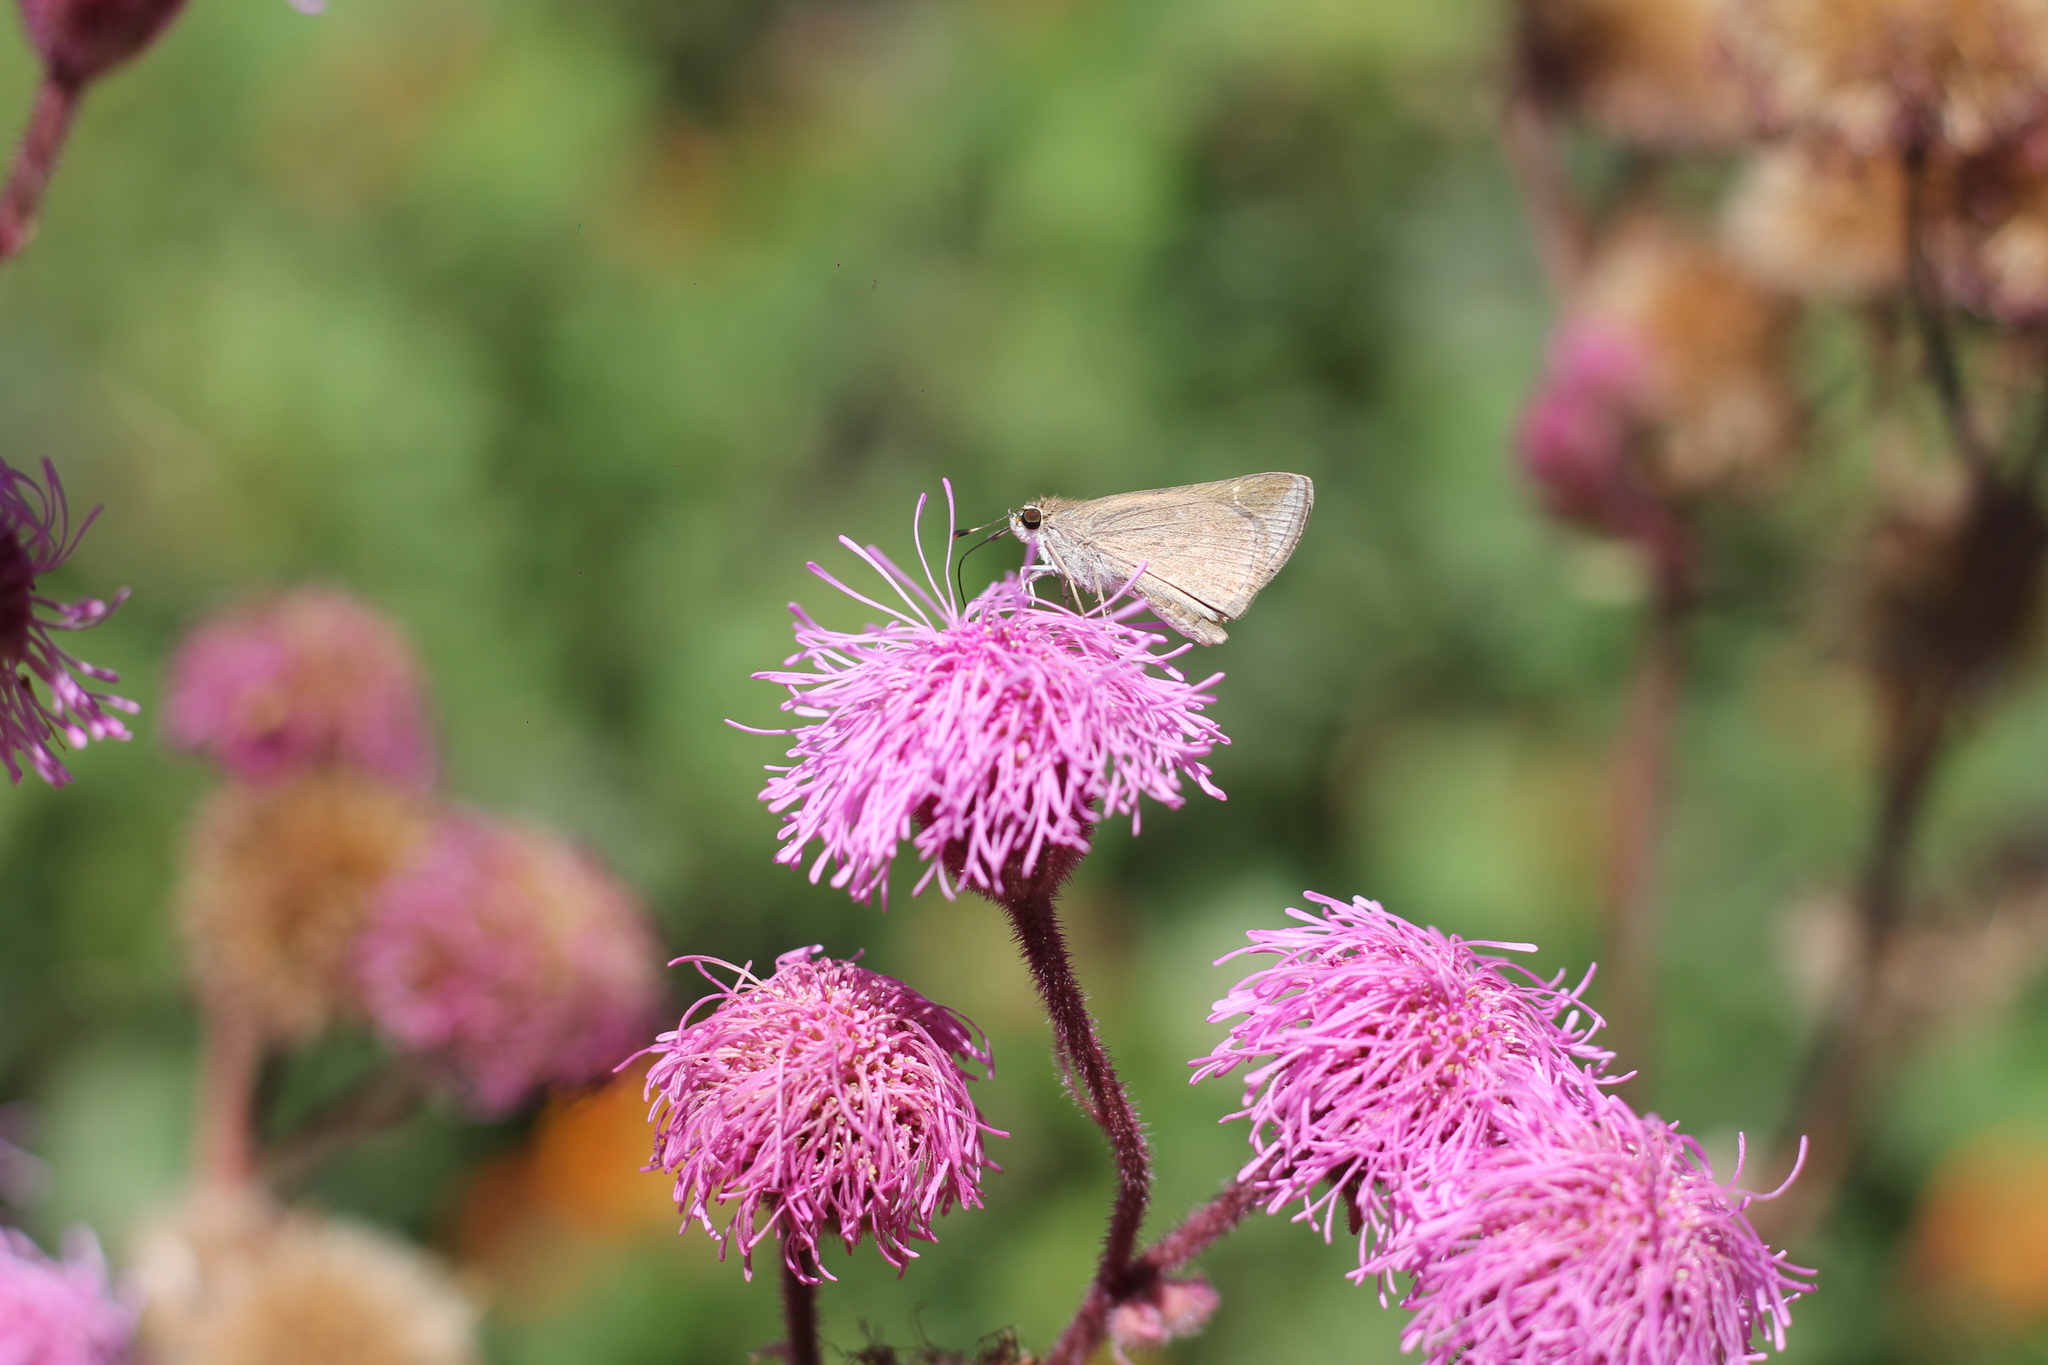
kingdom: Animalia
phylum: Arthropoda
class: Insecta
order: Lepidoptera
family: Hesperiidae
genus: Lerodea
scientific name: Lerodea eufala
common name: Eufala skipper
